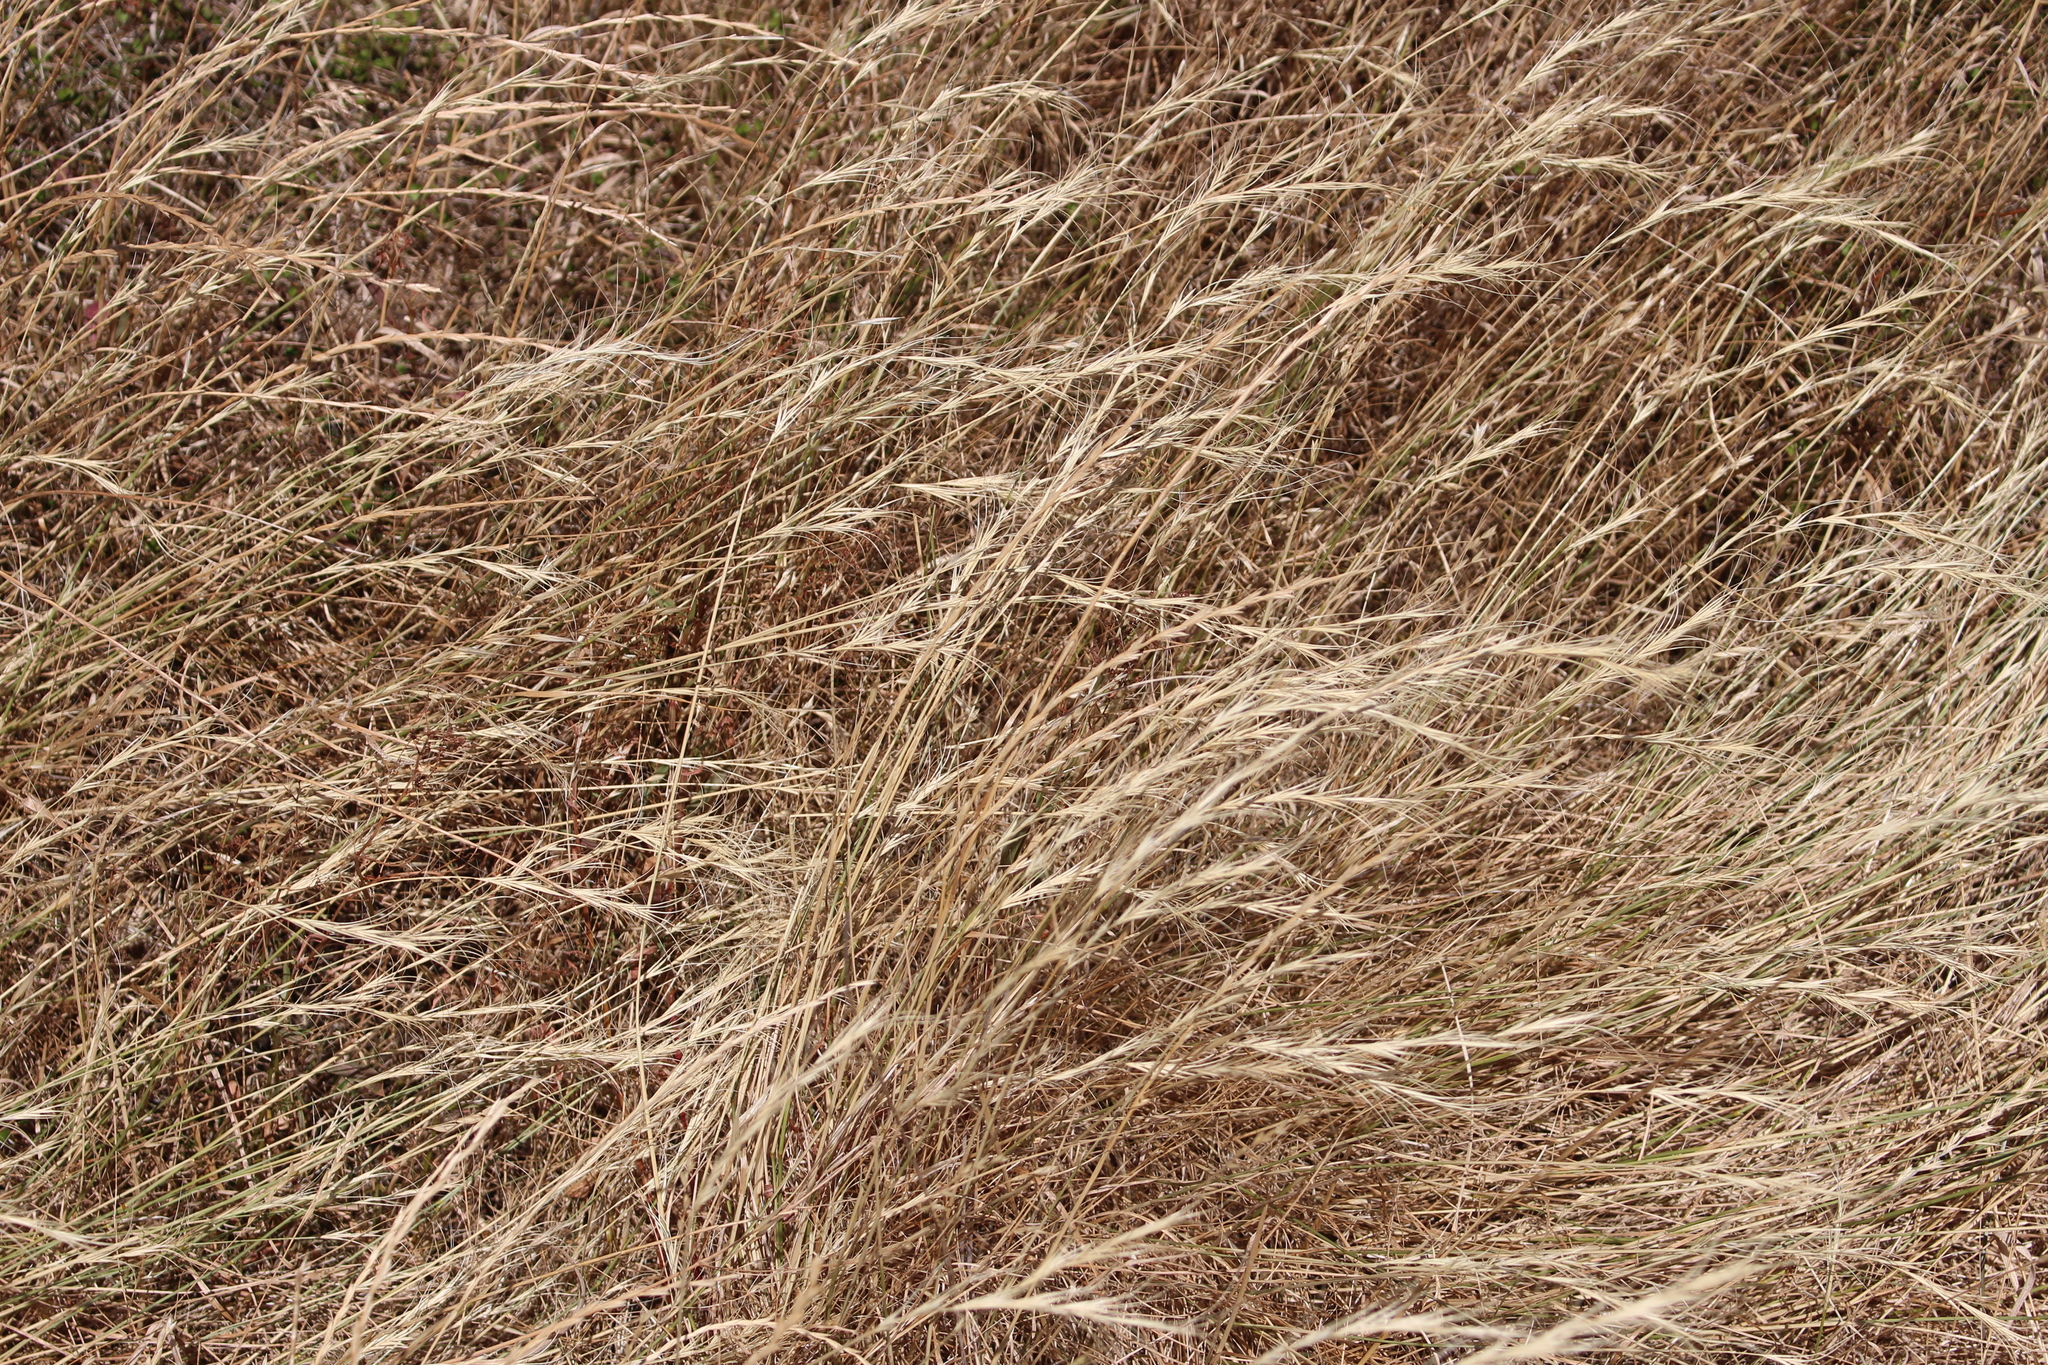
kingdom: Plantae
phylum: Tracheophyta
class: Liliopsida
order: Poales
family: Poaceae
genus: Anthosachne
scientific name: Anthosachne solandri
